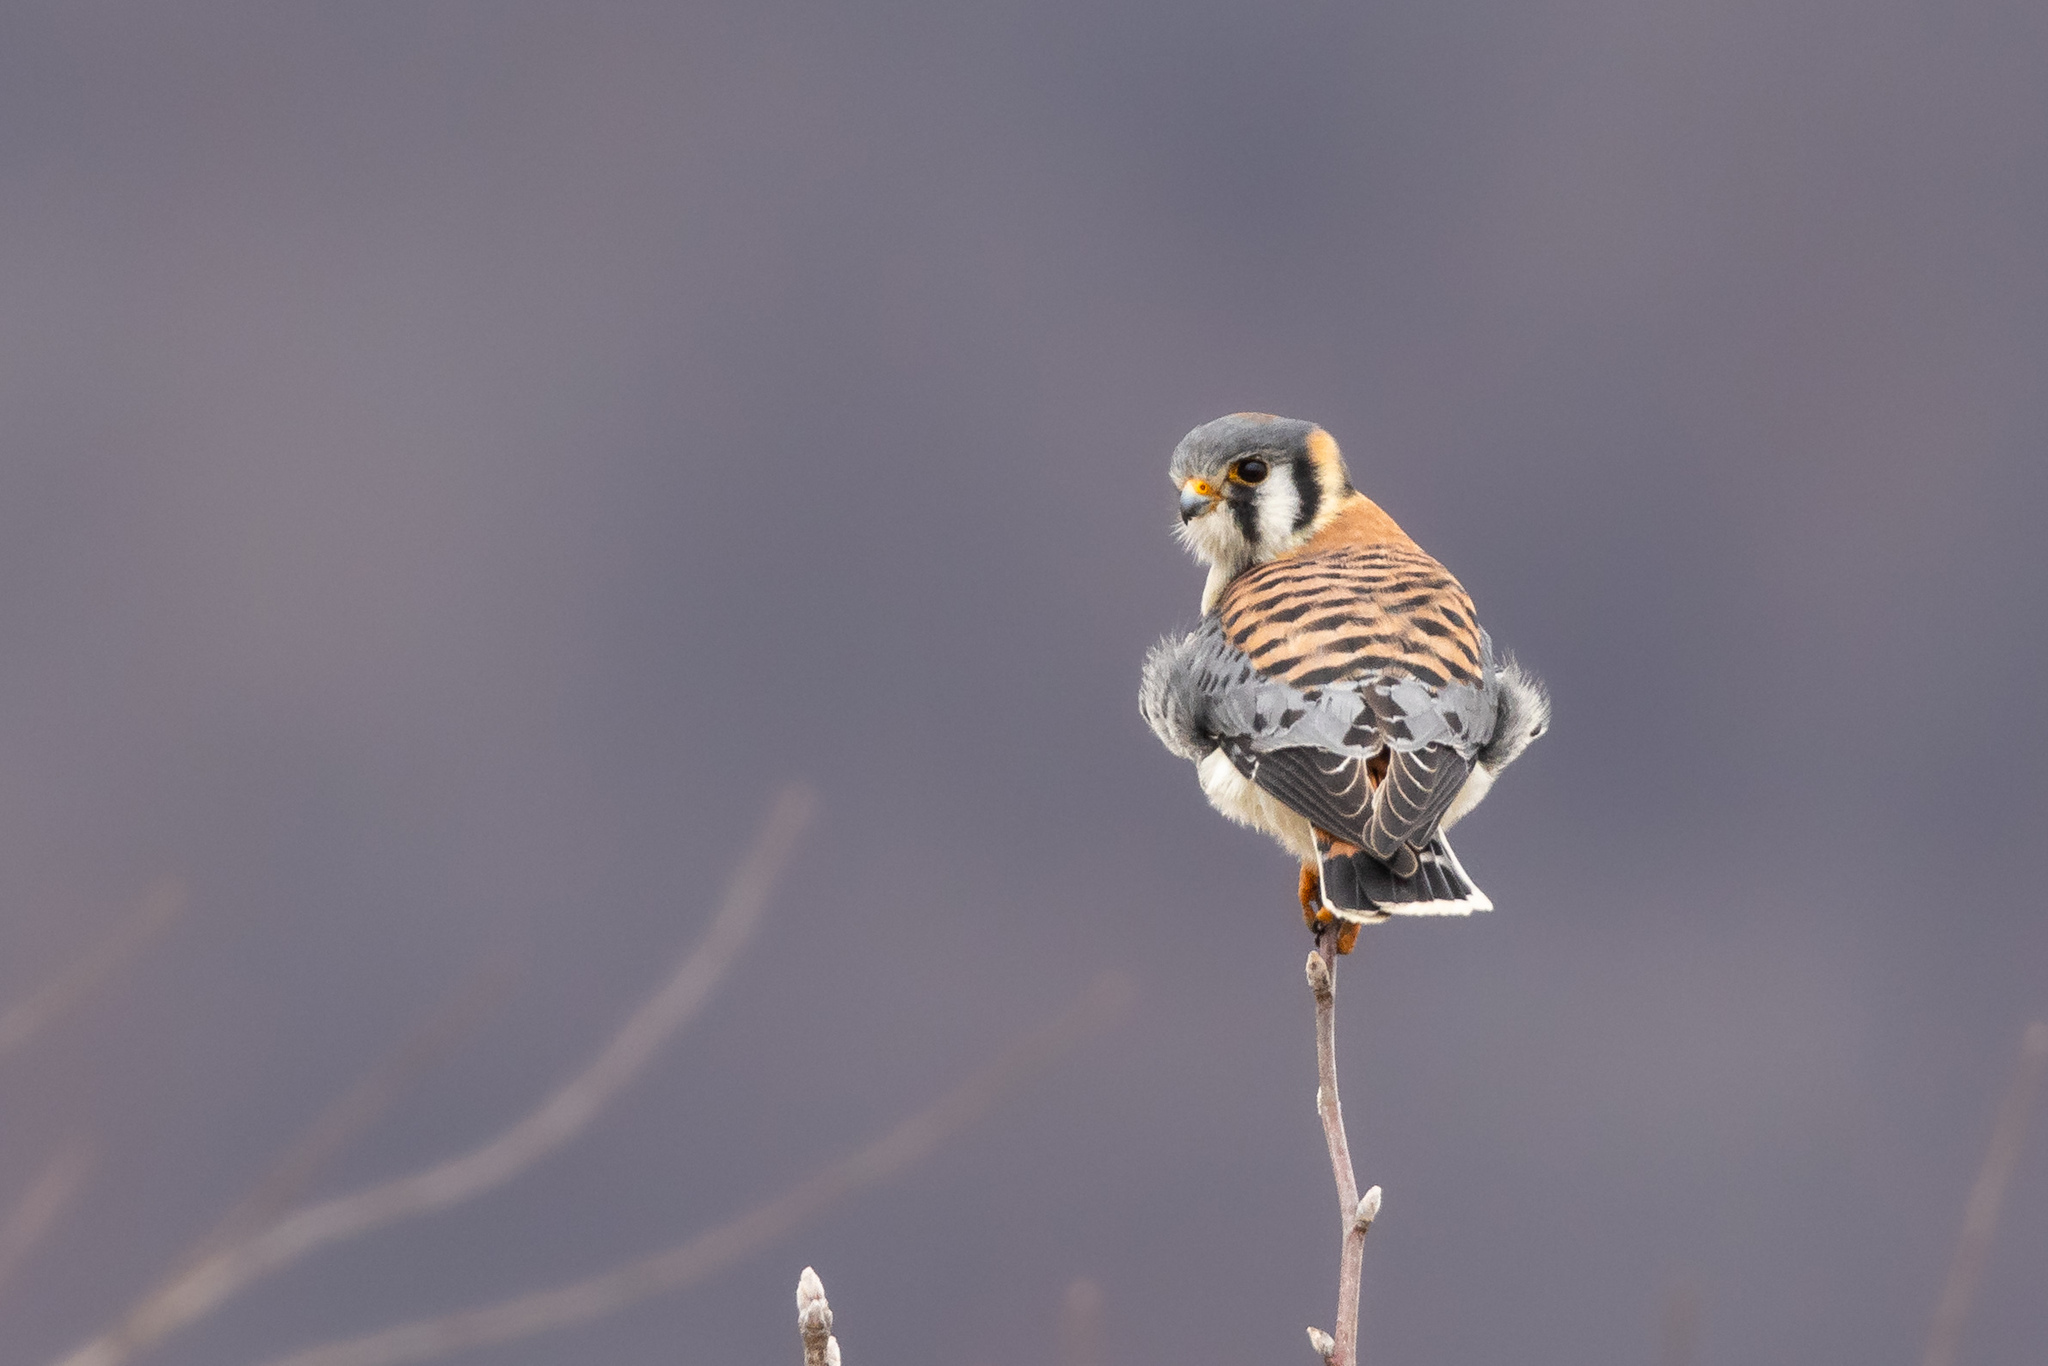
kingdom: Animalia
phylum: Chordata
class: Aves
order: Falconiformes
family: Falconidae
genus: Falco
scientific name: Falco sparverius
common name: American kestrel
